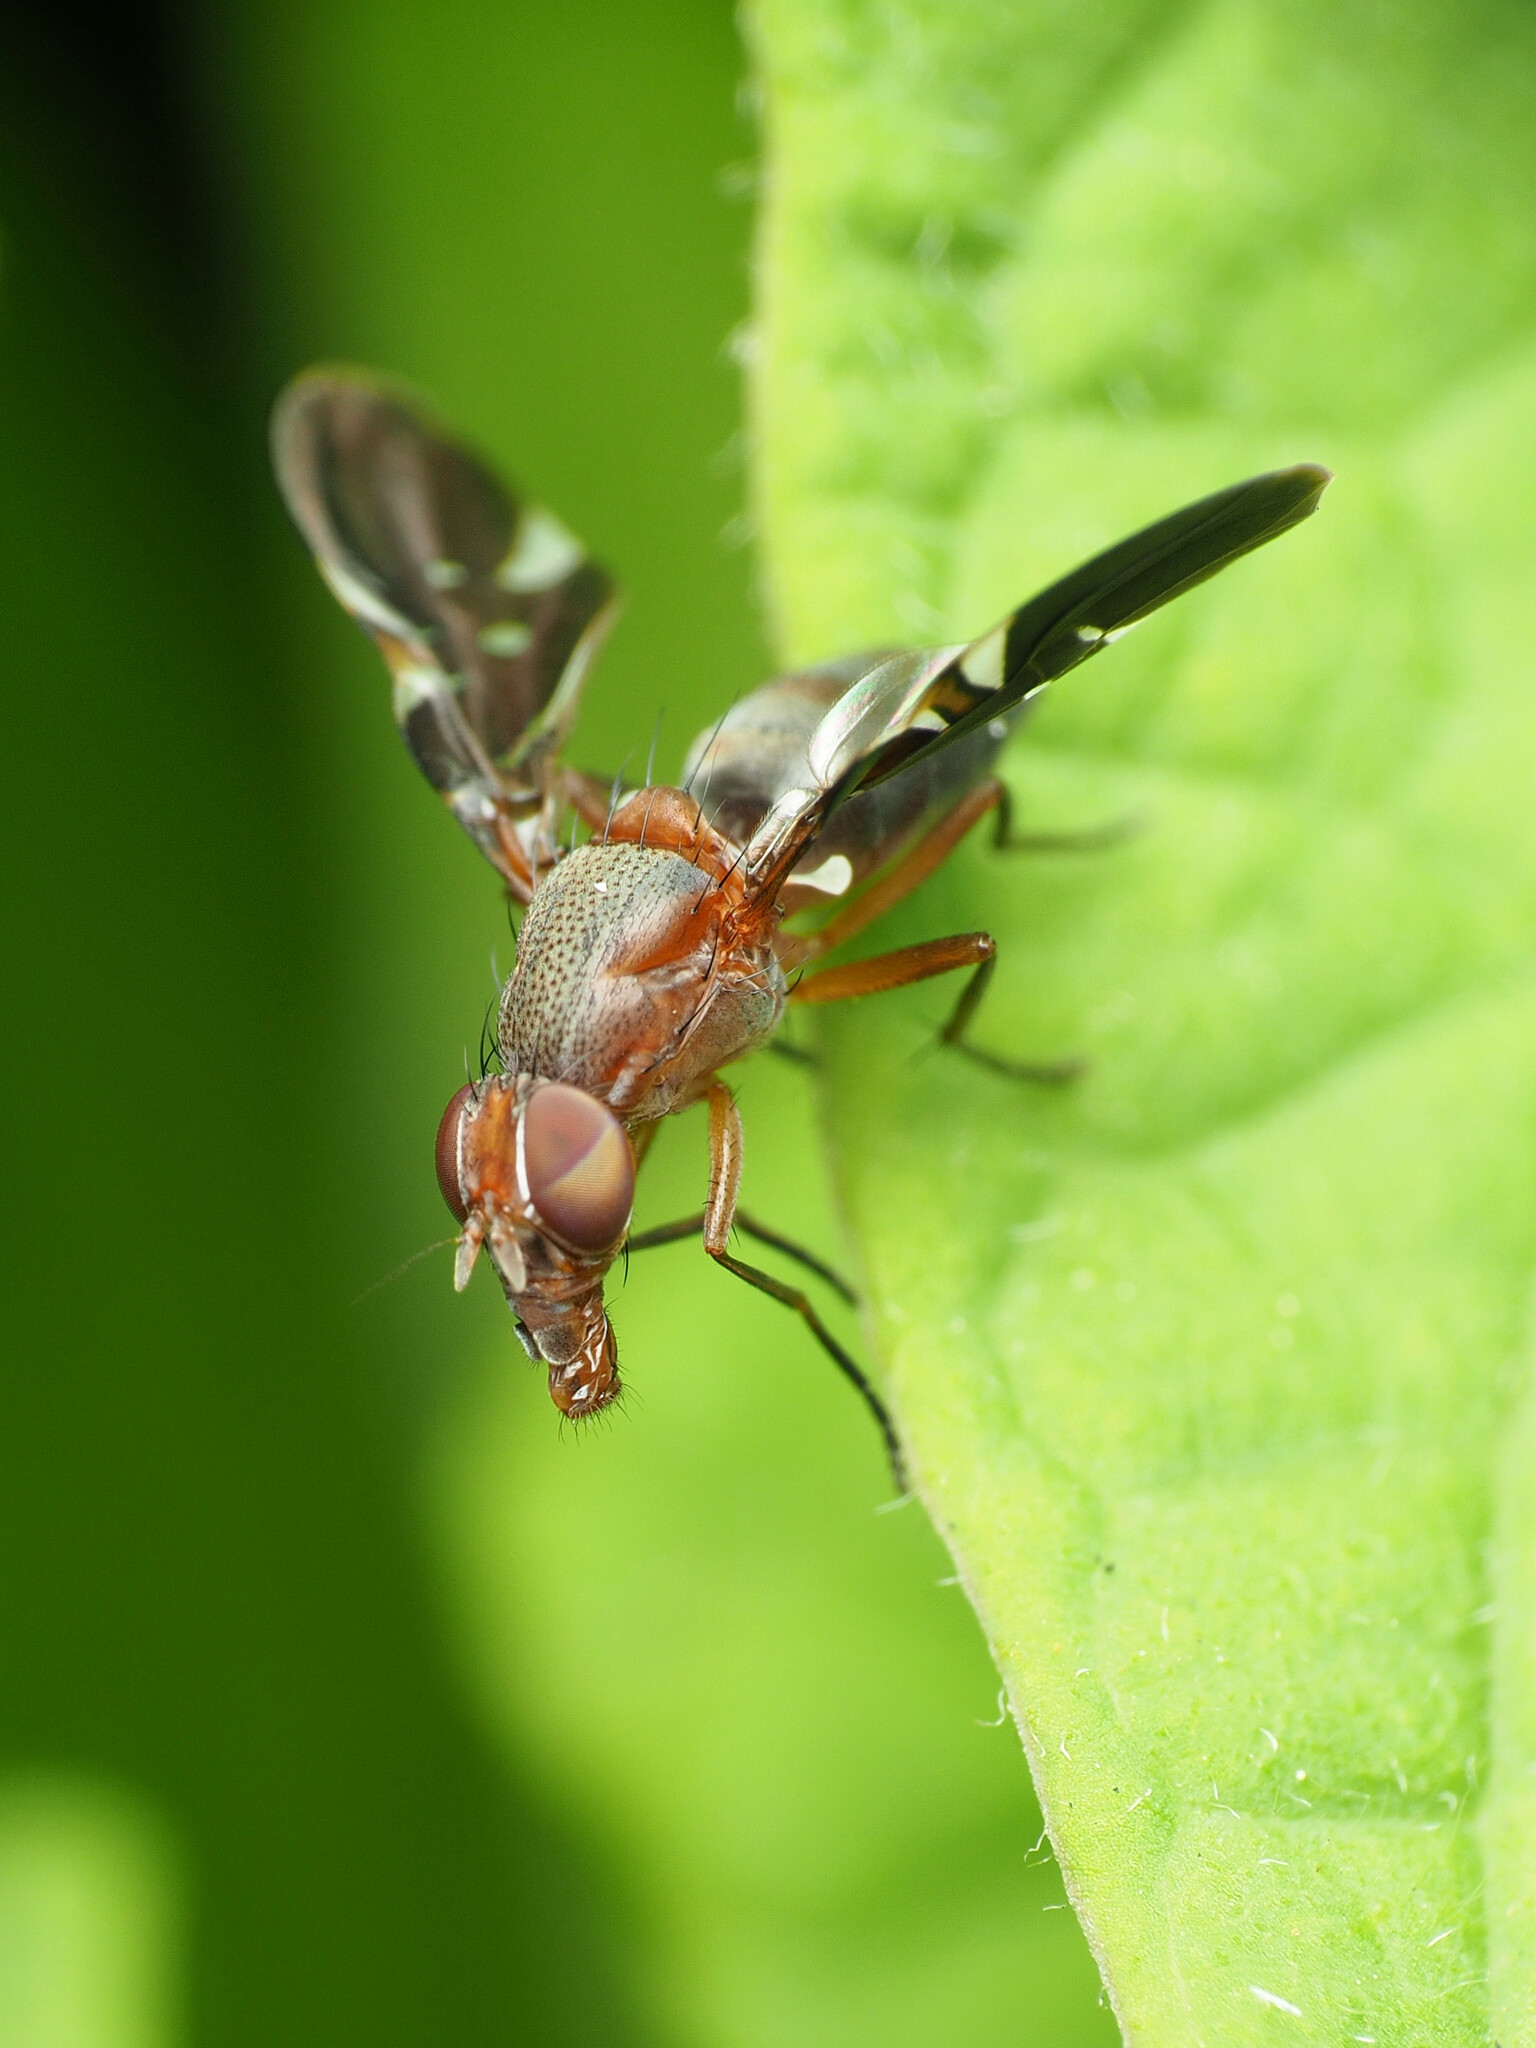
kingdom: Animalia
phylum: Arthropoda
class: Insecta
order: Diptera
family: Ulidiidae
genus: Delphinia
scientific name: Delphinia picta
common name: Common picture-winged fly
